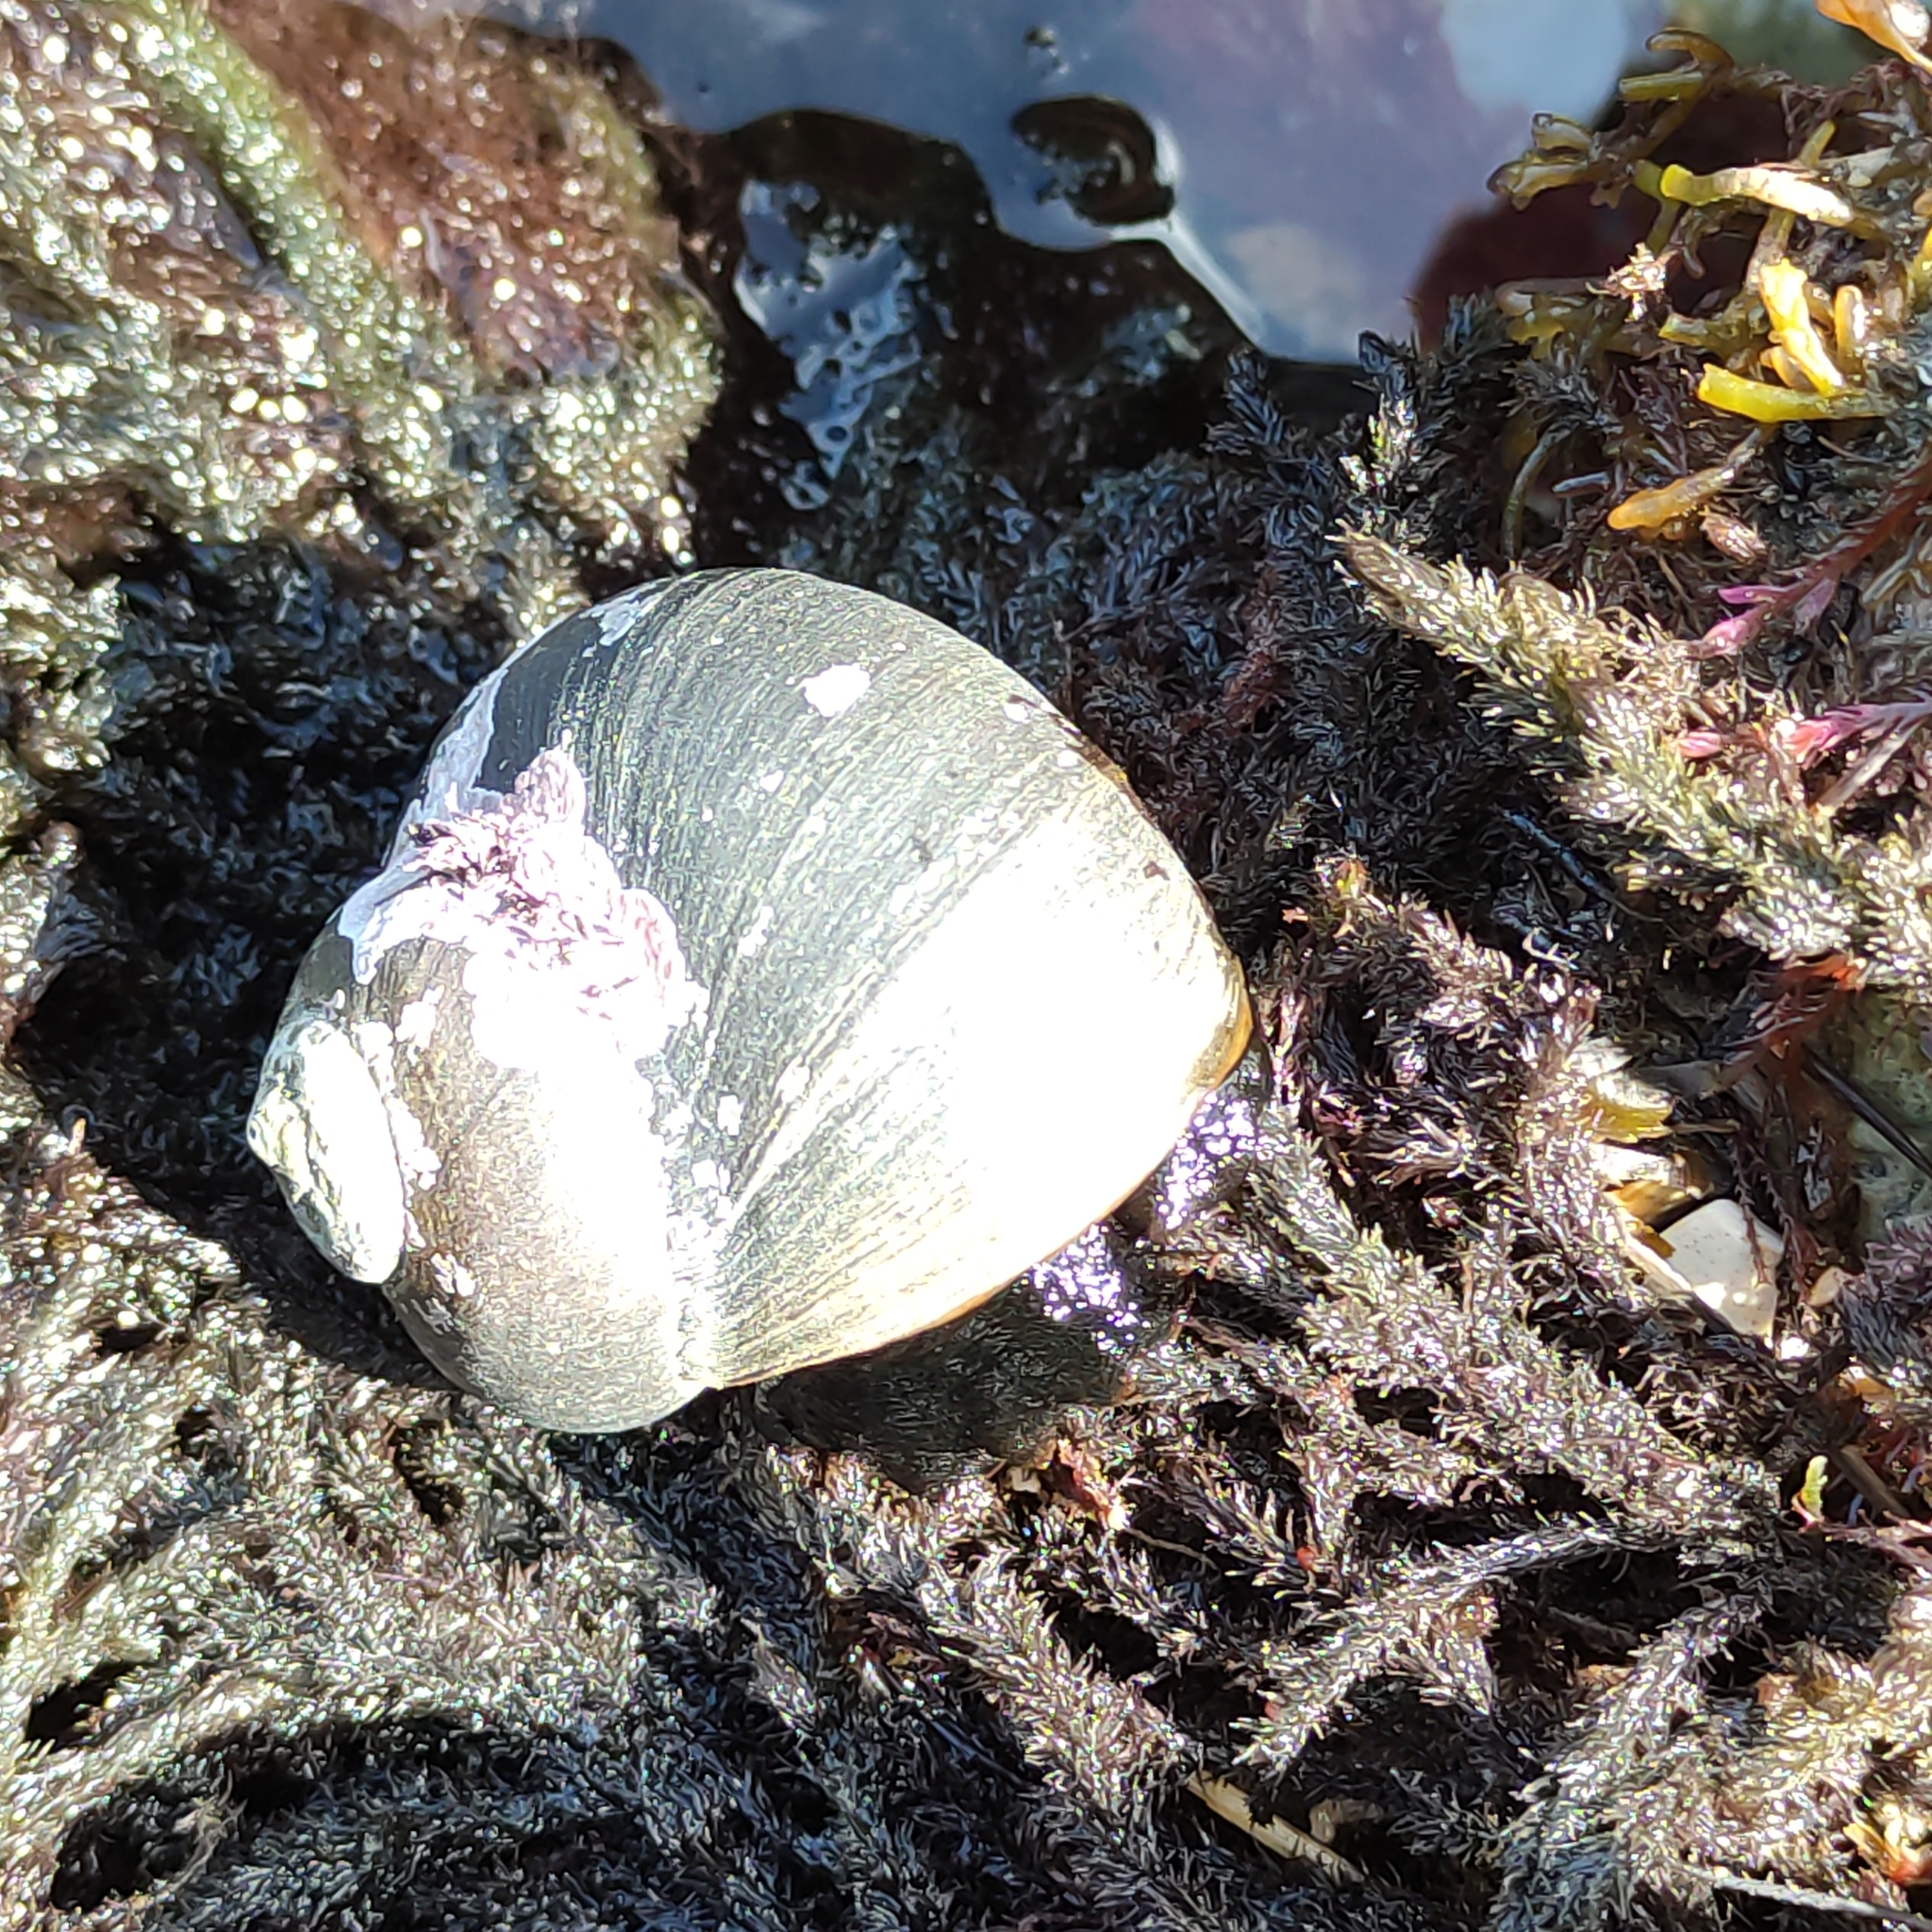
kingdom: Animalia
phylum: Mollusca
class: Gastropoda
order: Trochida
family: Turbinidae
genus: Lunella
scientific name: Lunella smaragda
